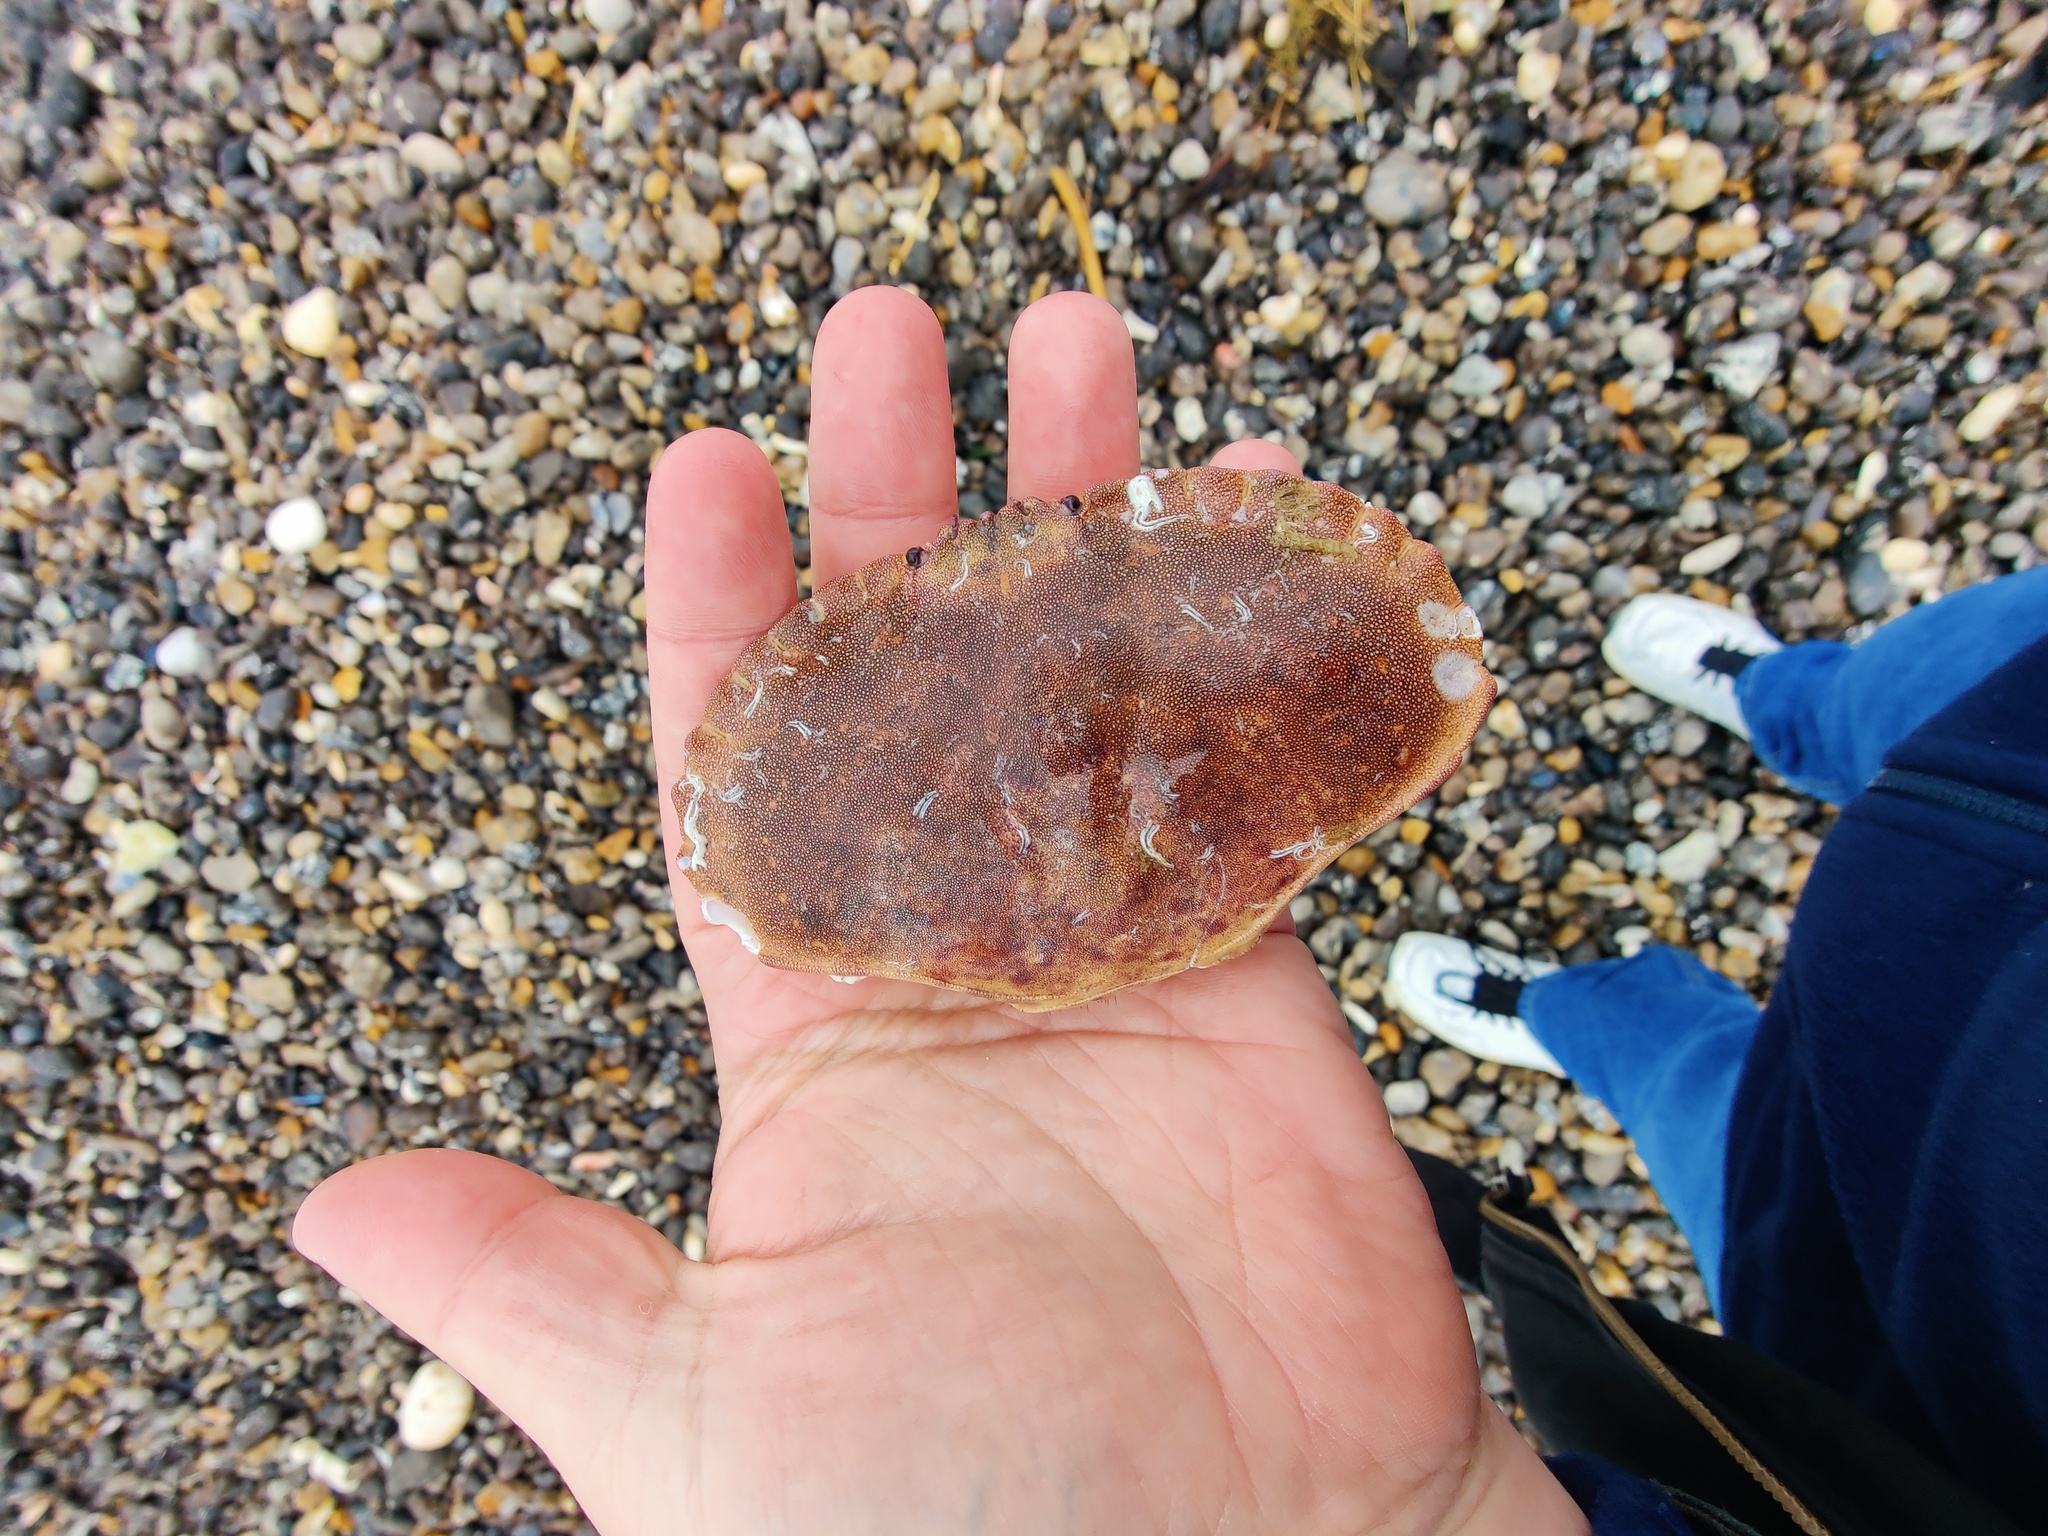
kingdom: Animalia
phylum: Arthropoda
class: Malacostraca
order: Decapoda
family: Cancridae
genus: Cancer
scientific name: Cancer pagurus
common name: Edible crab
